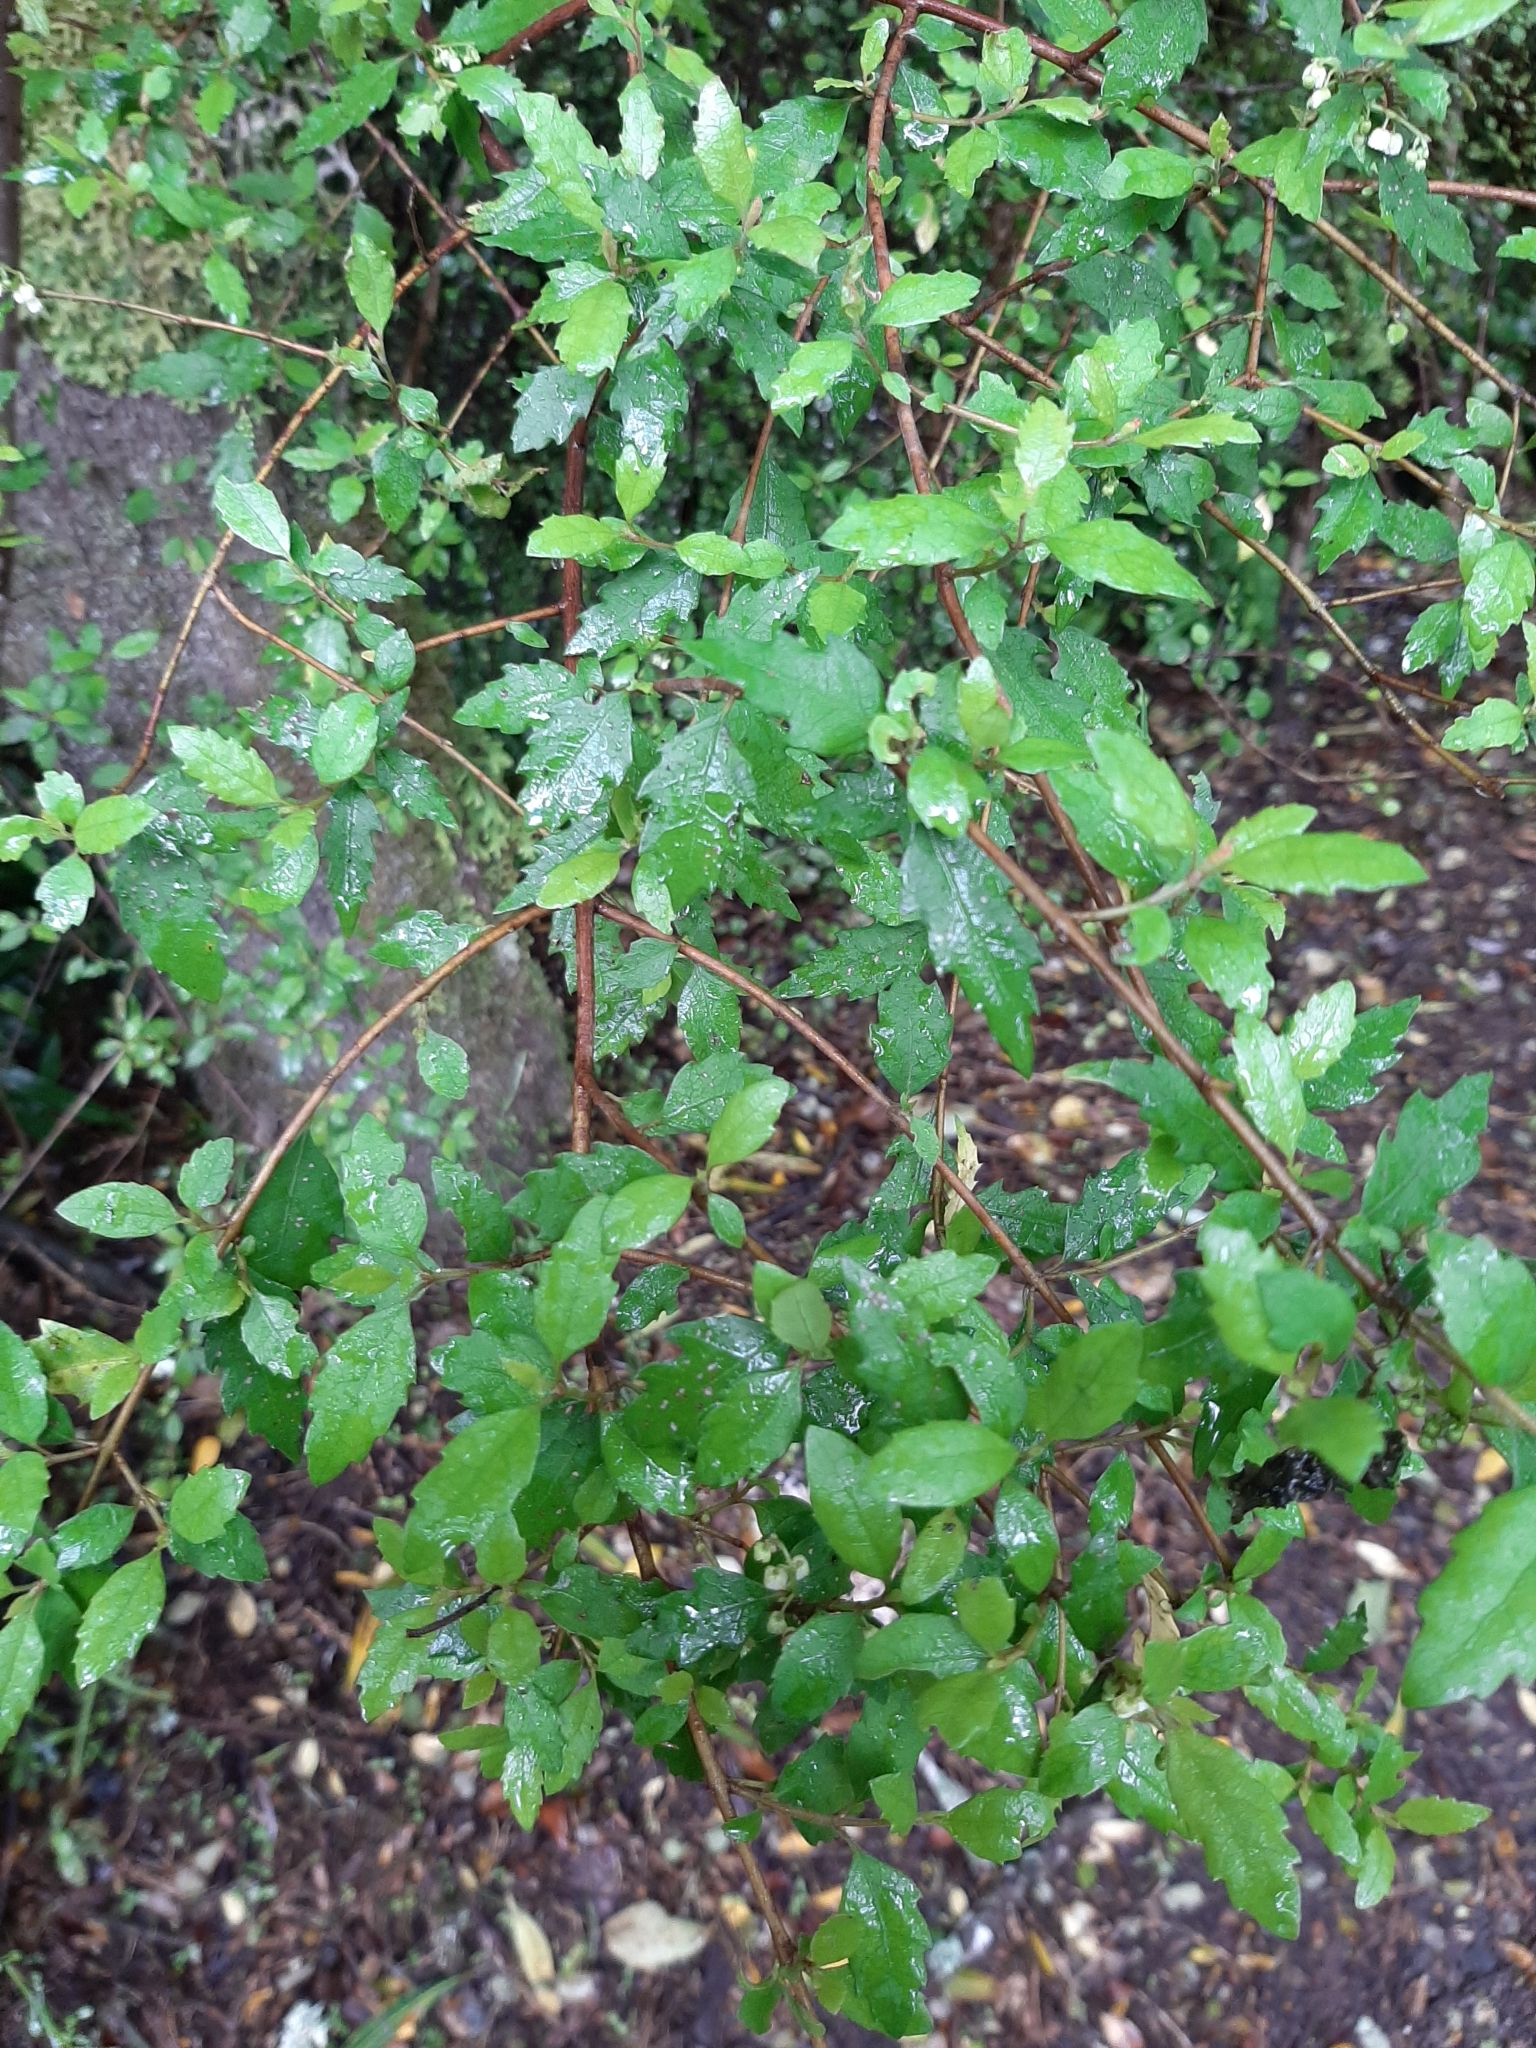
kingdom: Plantae
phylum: Tracheophyta
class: Magnoliopsida
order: Oxalidales
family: Elaeocarpaceae
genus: Aristotelia
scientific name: Aristotelia
